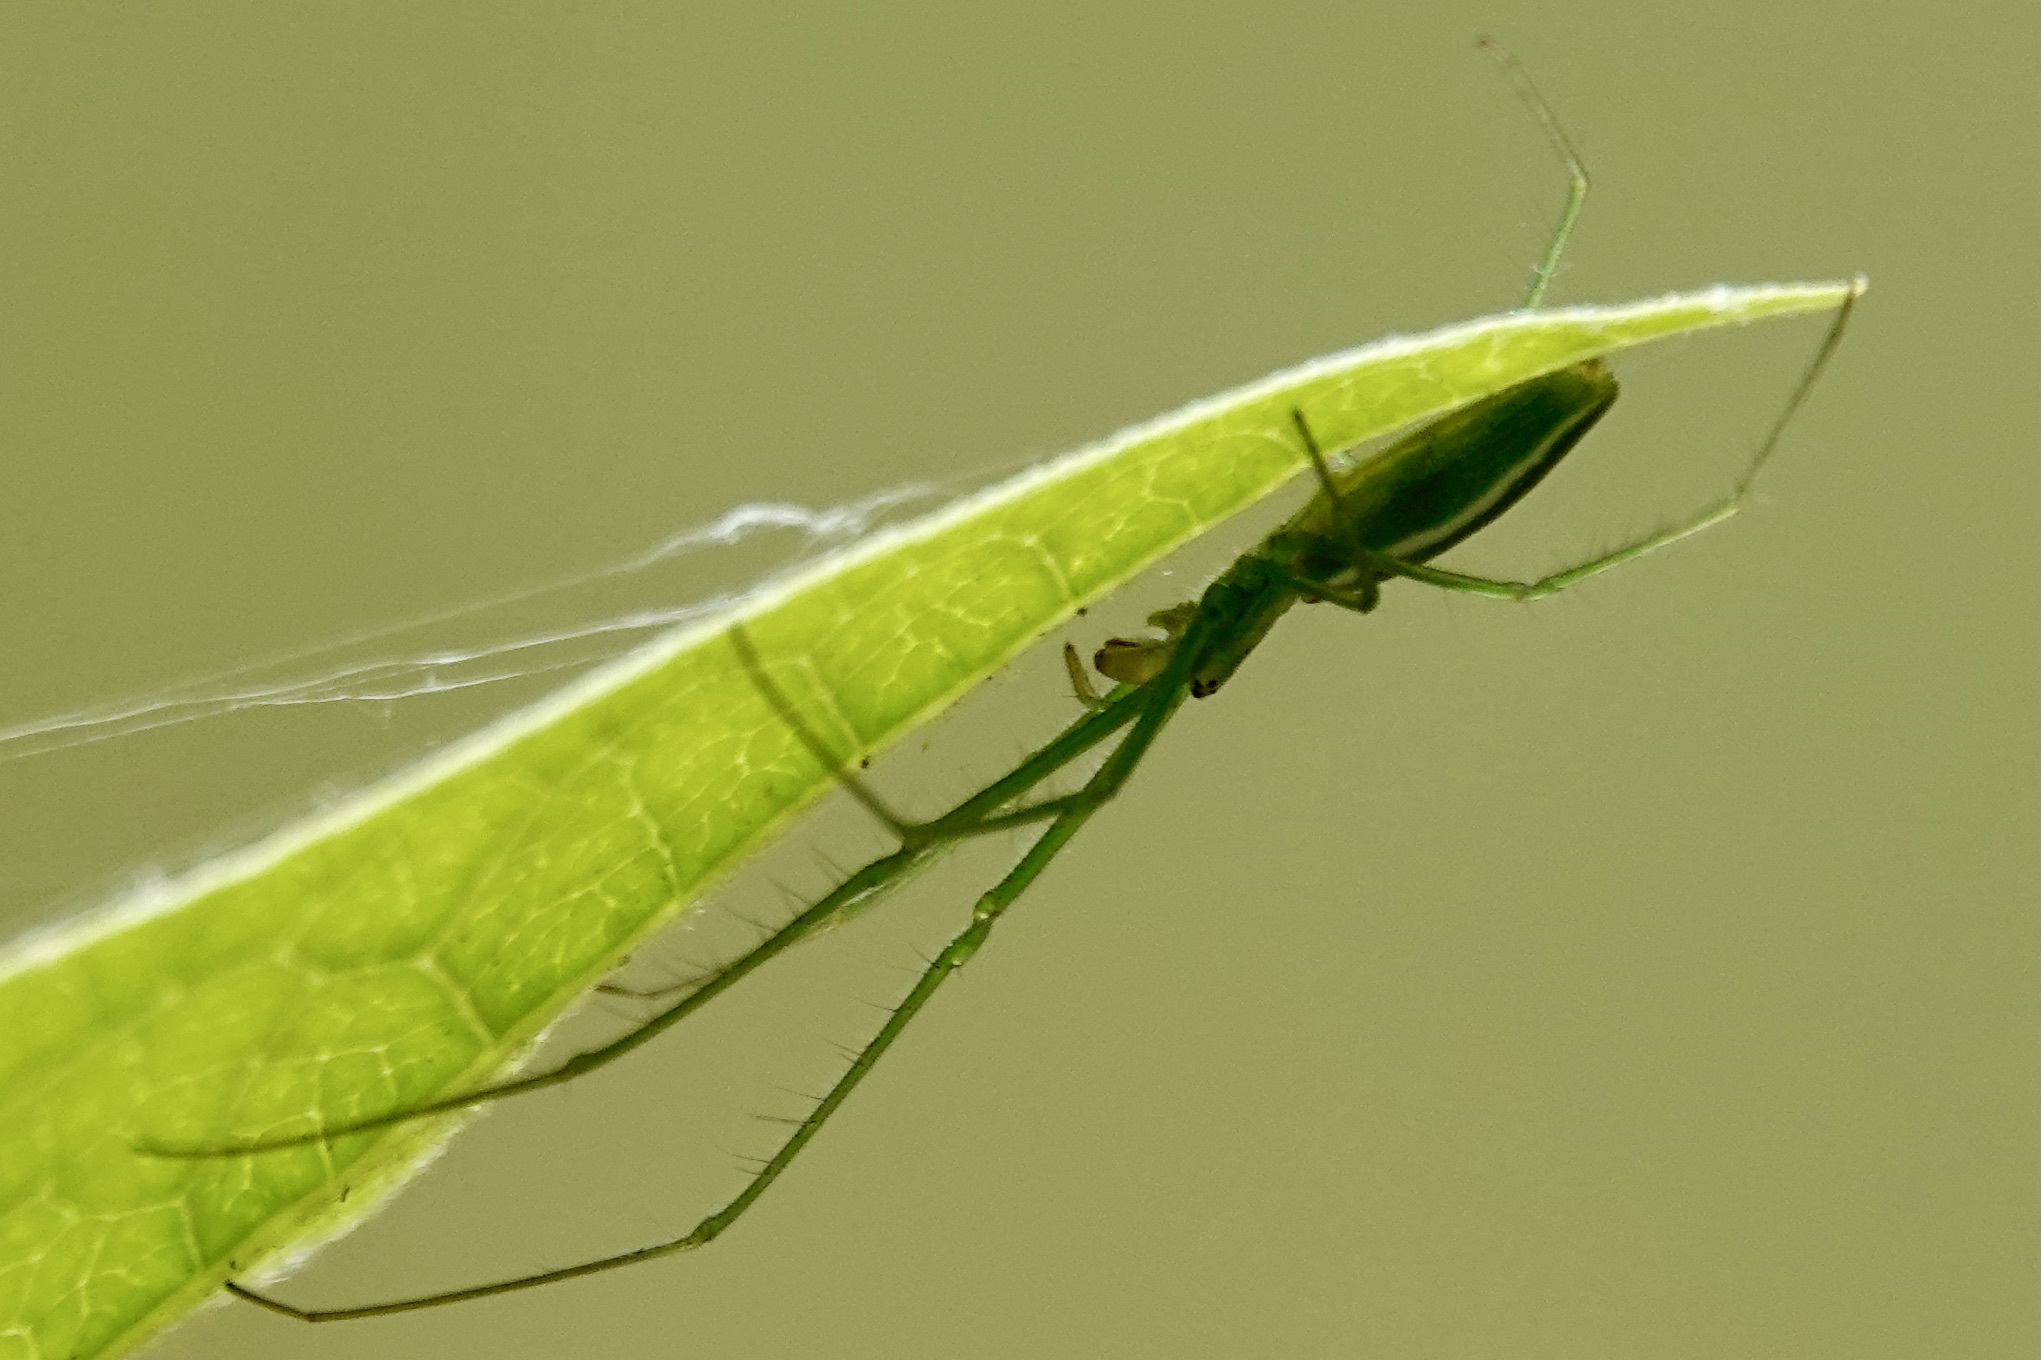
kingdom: Animalia
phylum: Arthropoda
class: Arachnida
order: Araneae
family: Tetragnathidae
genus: Tetragnatha
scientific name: Tetragnatha viridis
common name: Green long-jawed spider
